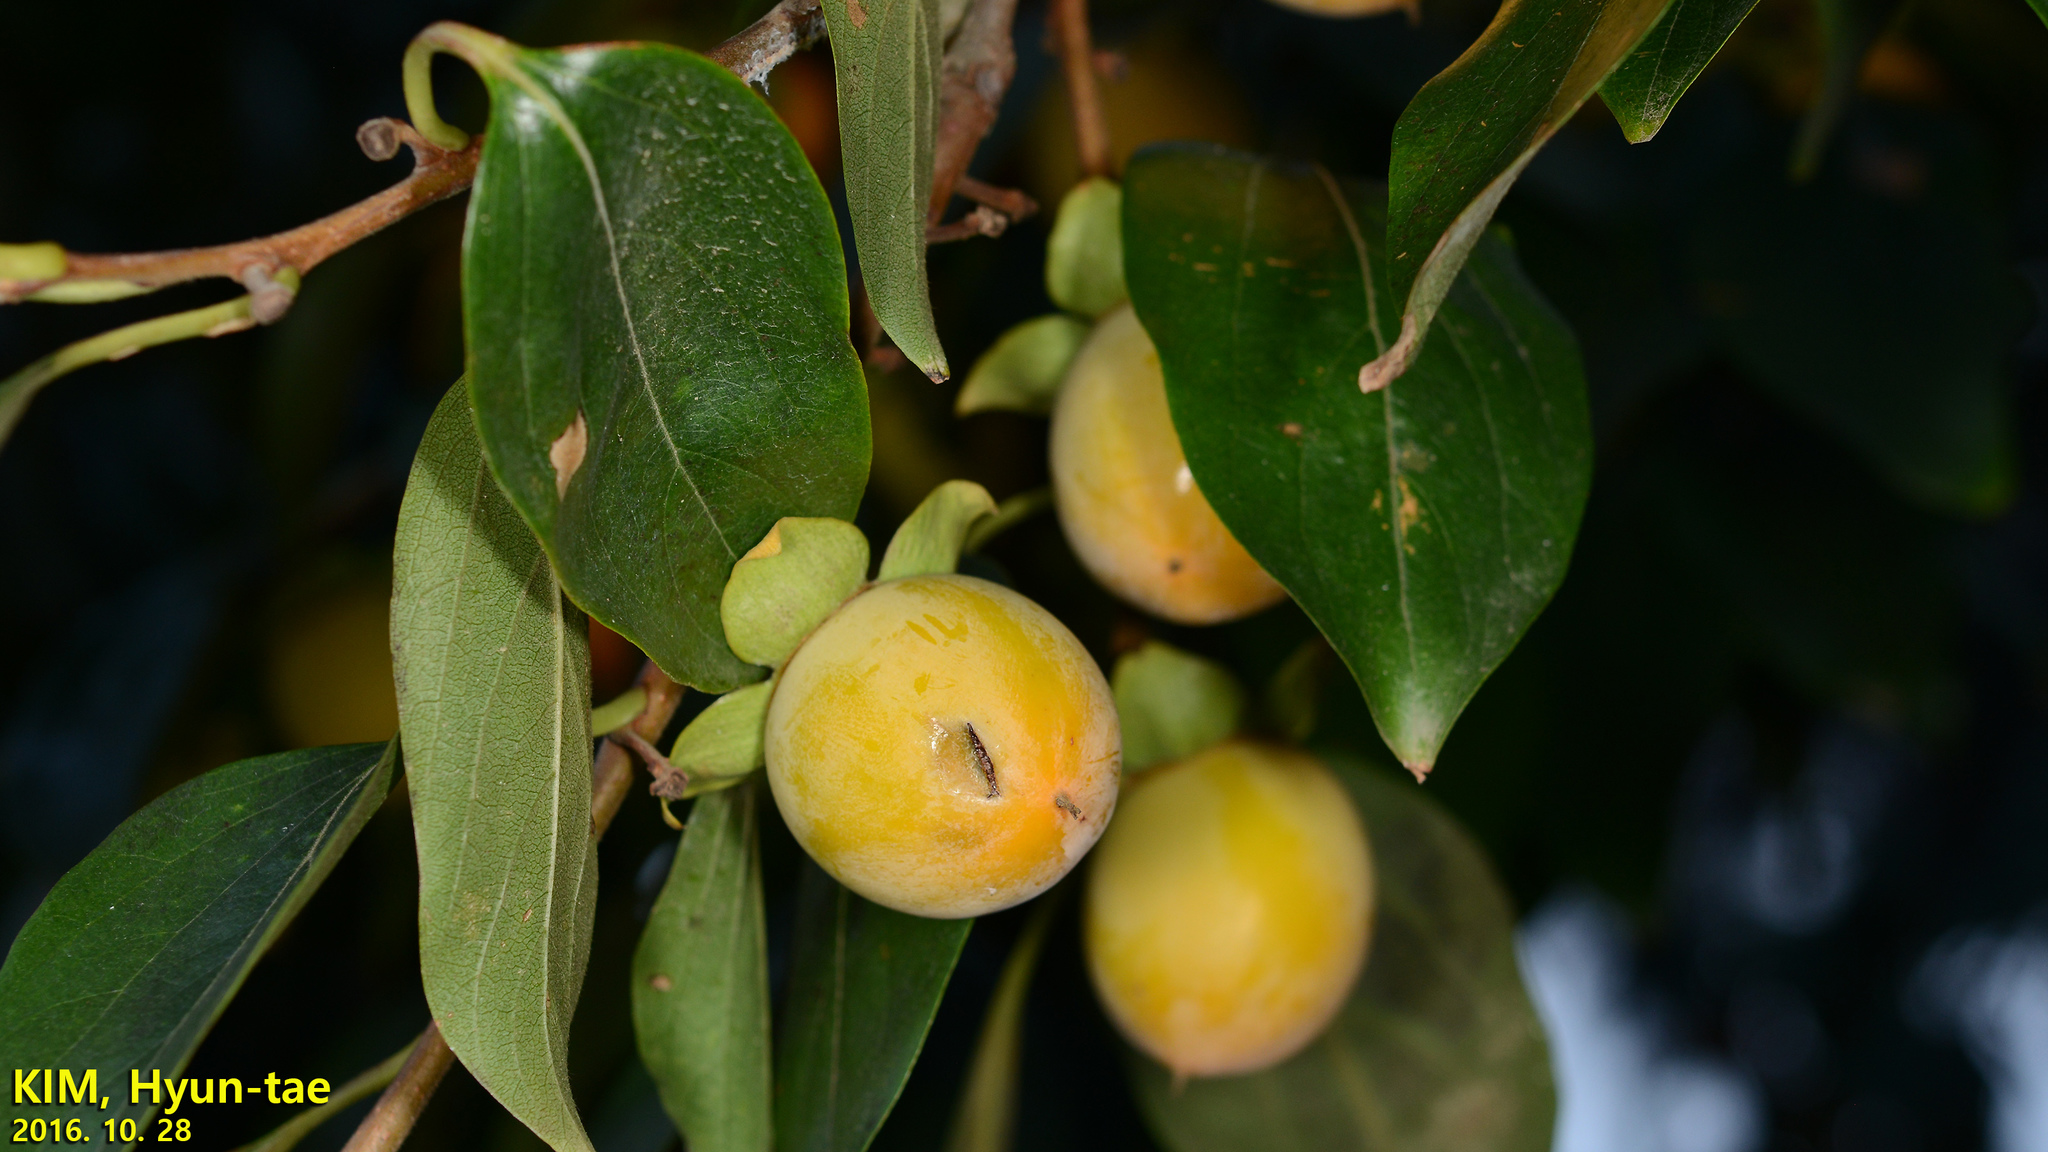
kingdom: Plantae
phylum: Tracheophyta
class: Magnoliopsida
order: Ericales
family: Ebenaceae
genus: Diospyros
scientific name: Diospyros lotus
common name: Date-plum
